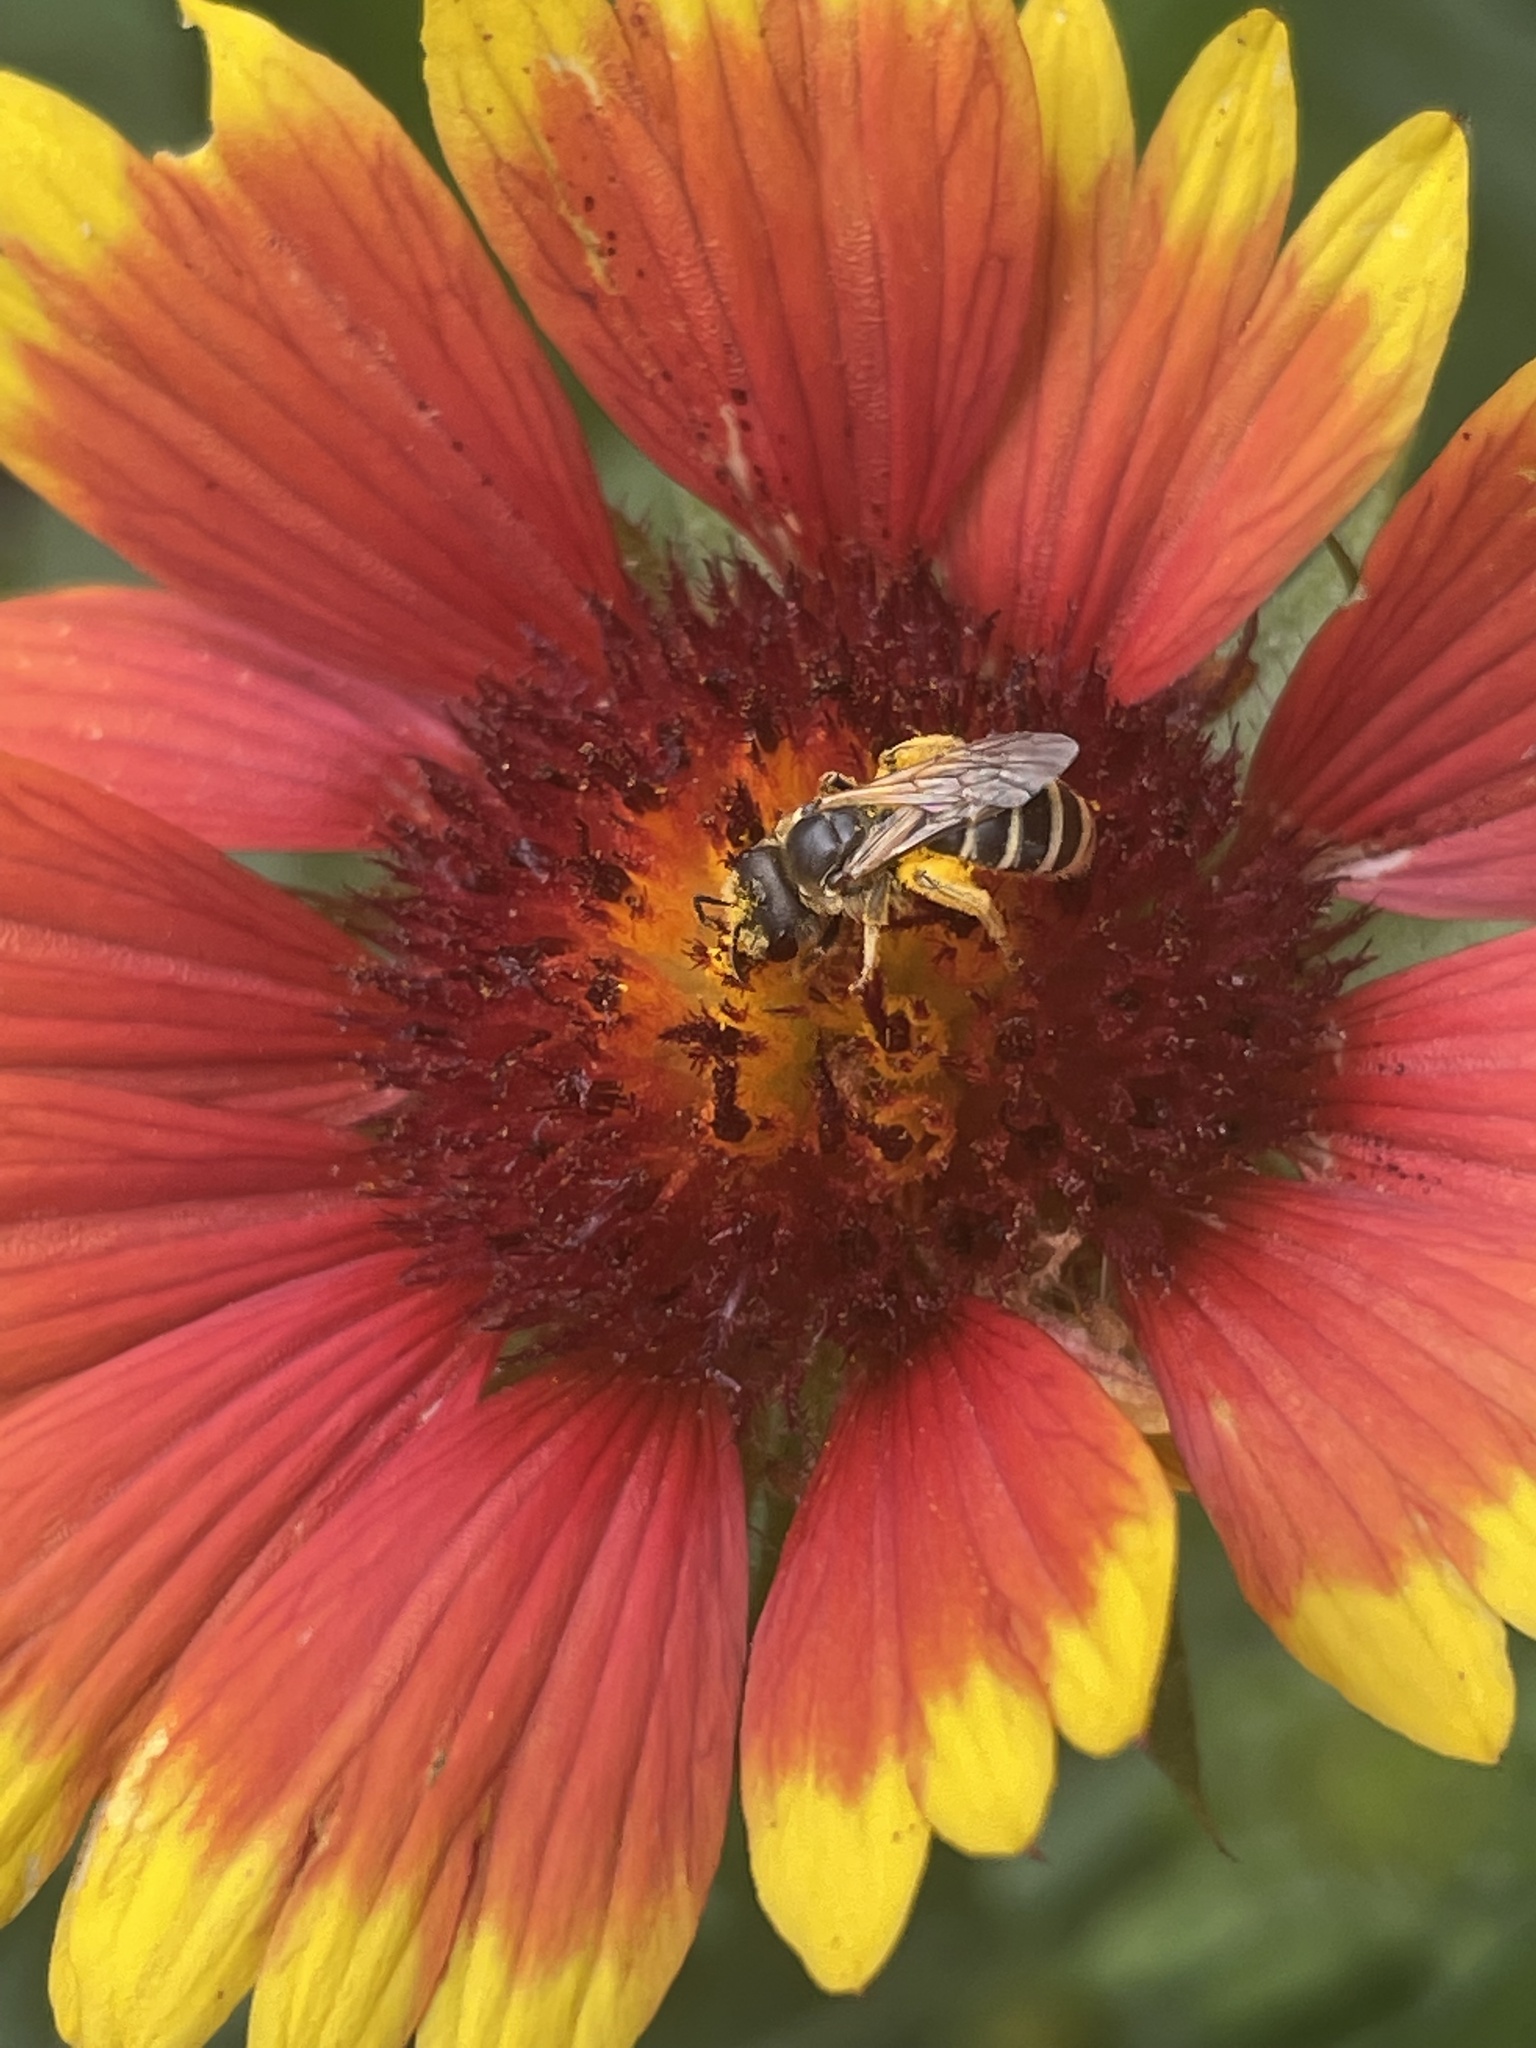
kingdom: Animalia
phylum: Arthropoda
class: Insecta
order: Hymenoptera
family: Halictidae
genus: Halictus
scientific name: Halictus ligatus
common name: Ligated furrow bee
